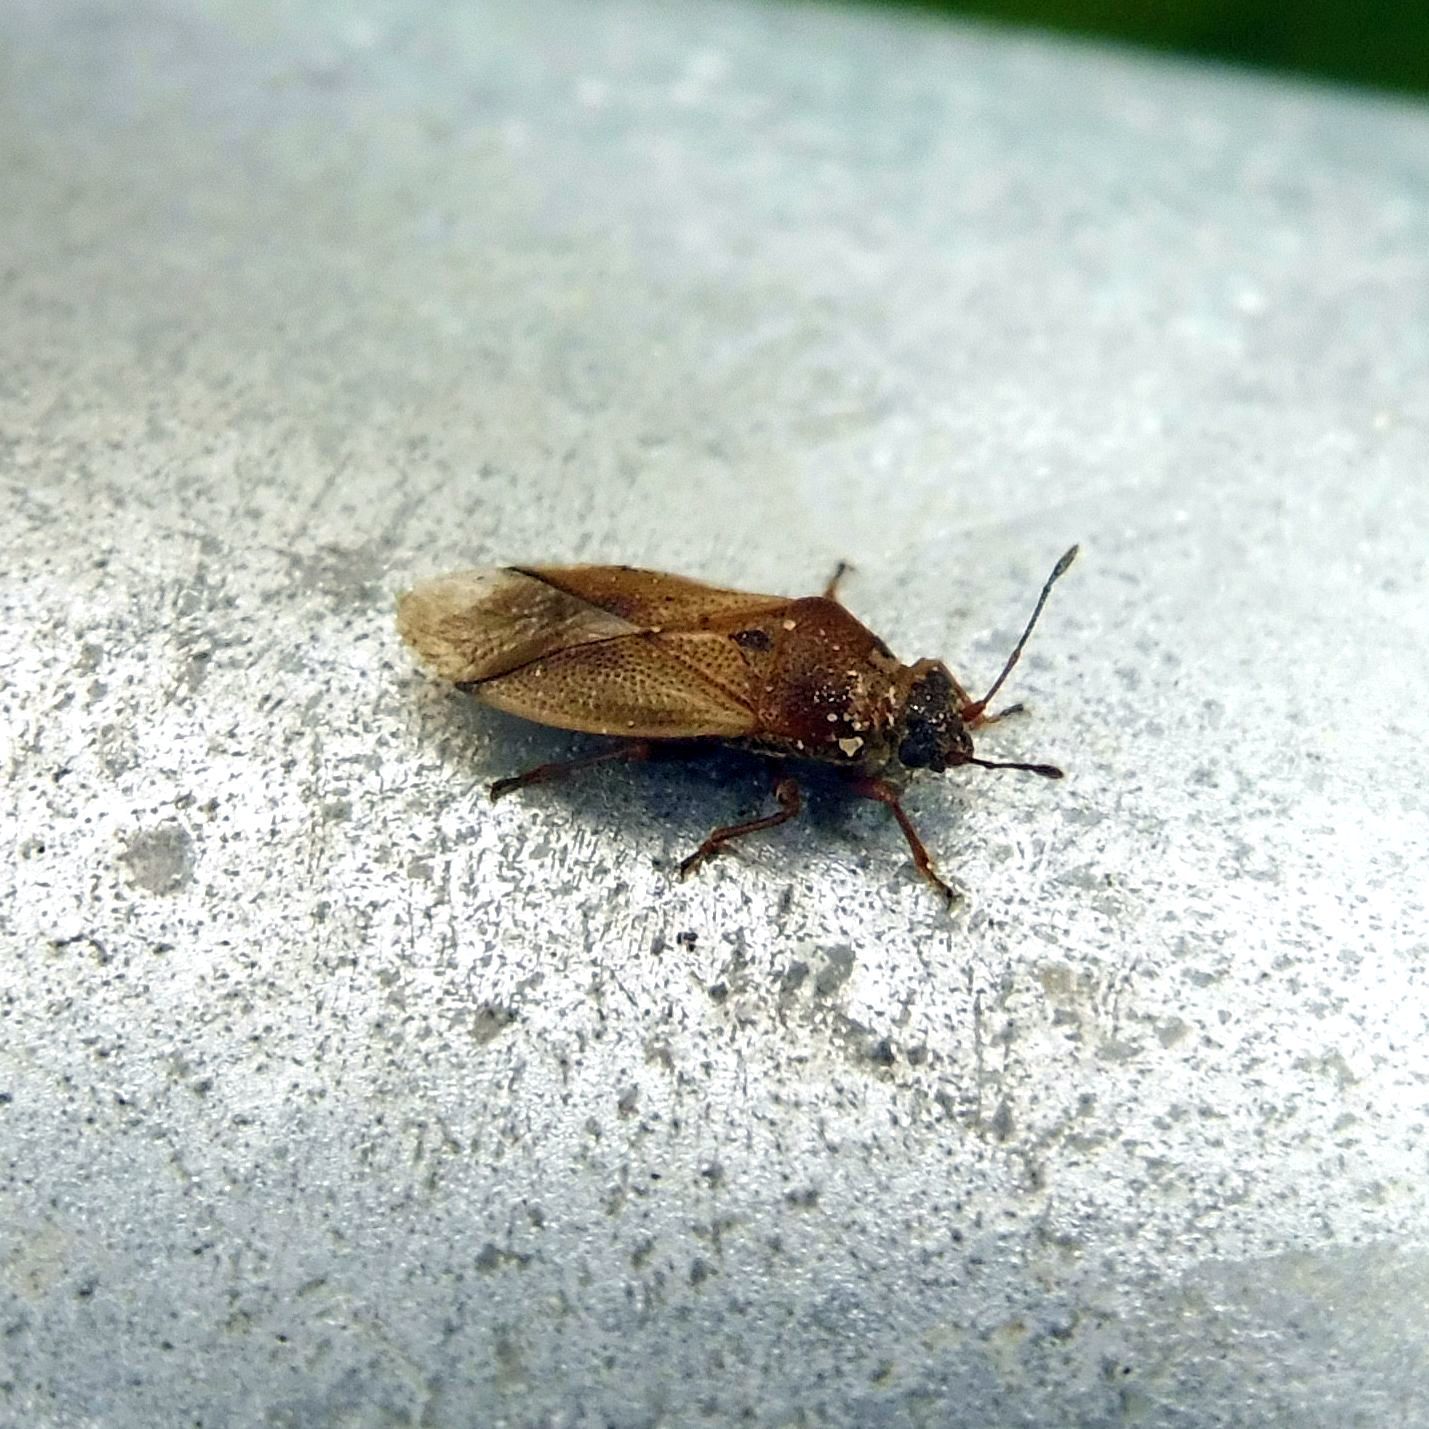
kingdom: Animalia
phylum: Arthropoda
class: Insecta
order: Hemiptera
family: Cymidae
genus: Cymus
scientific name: Cymus melanocephalus
